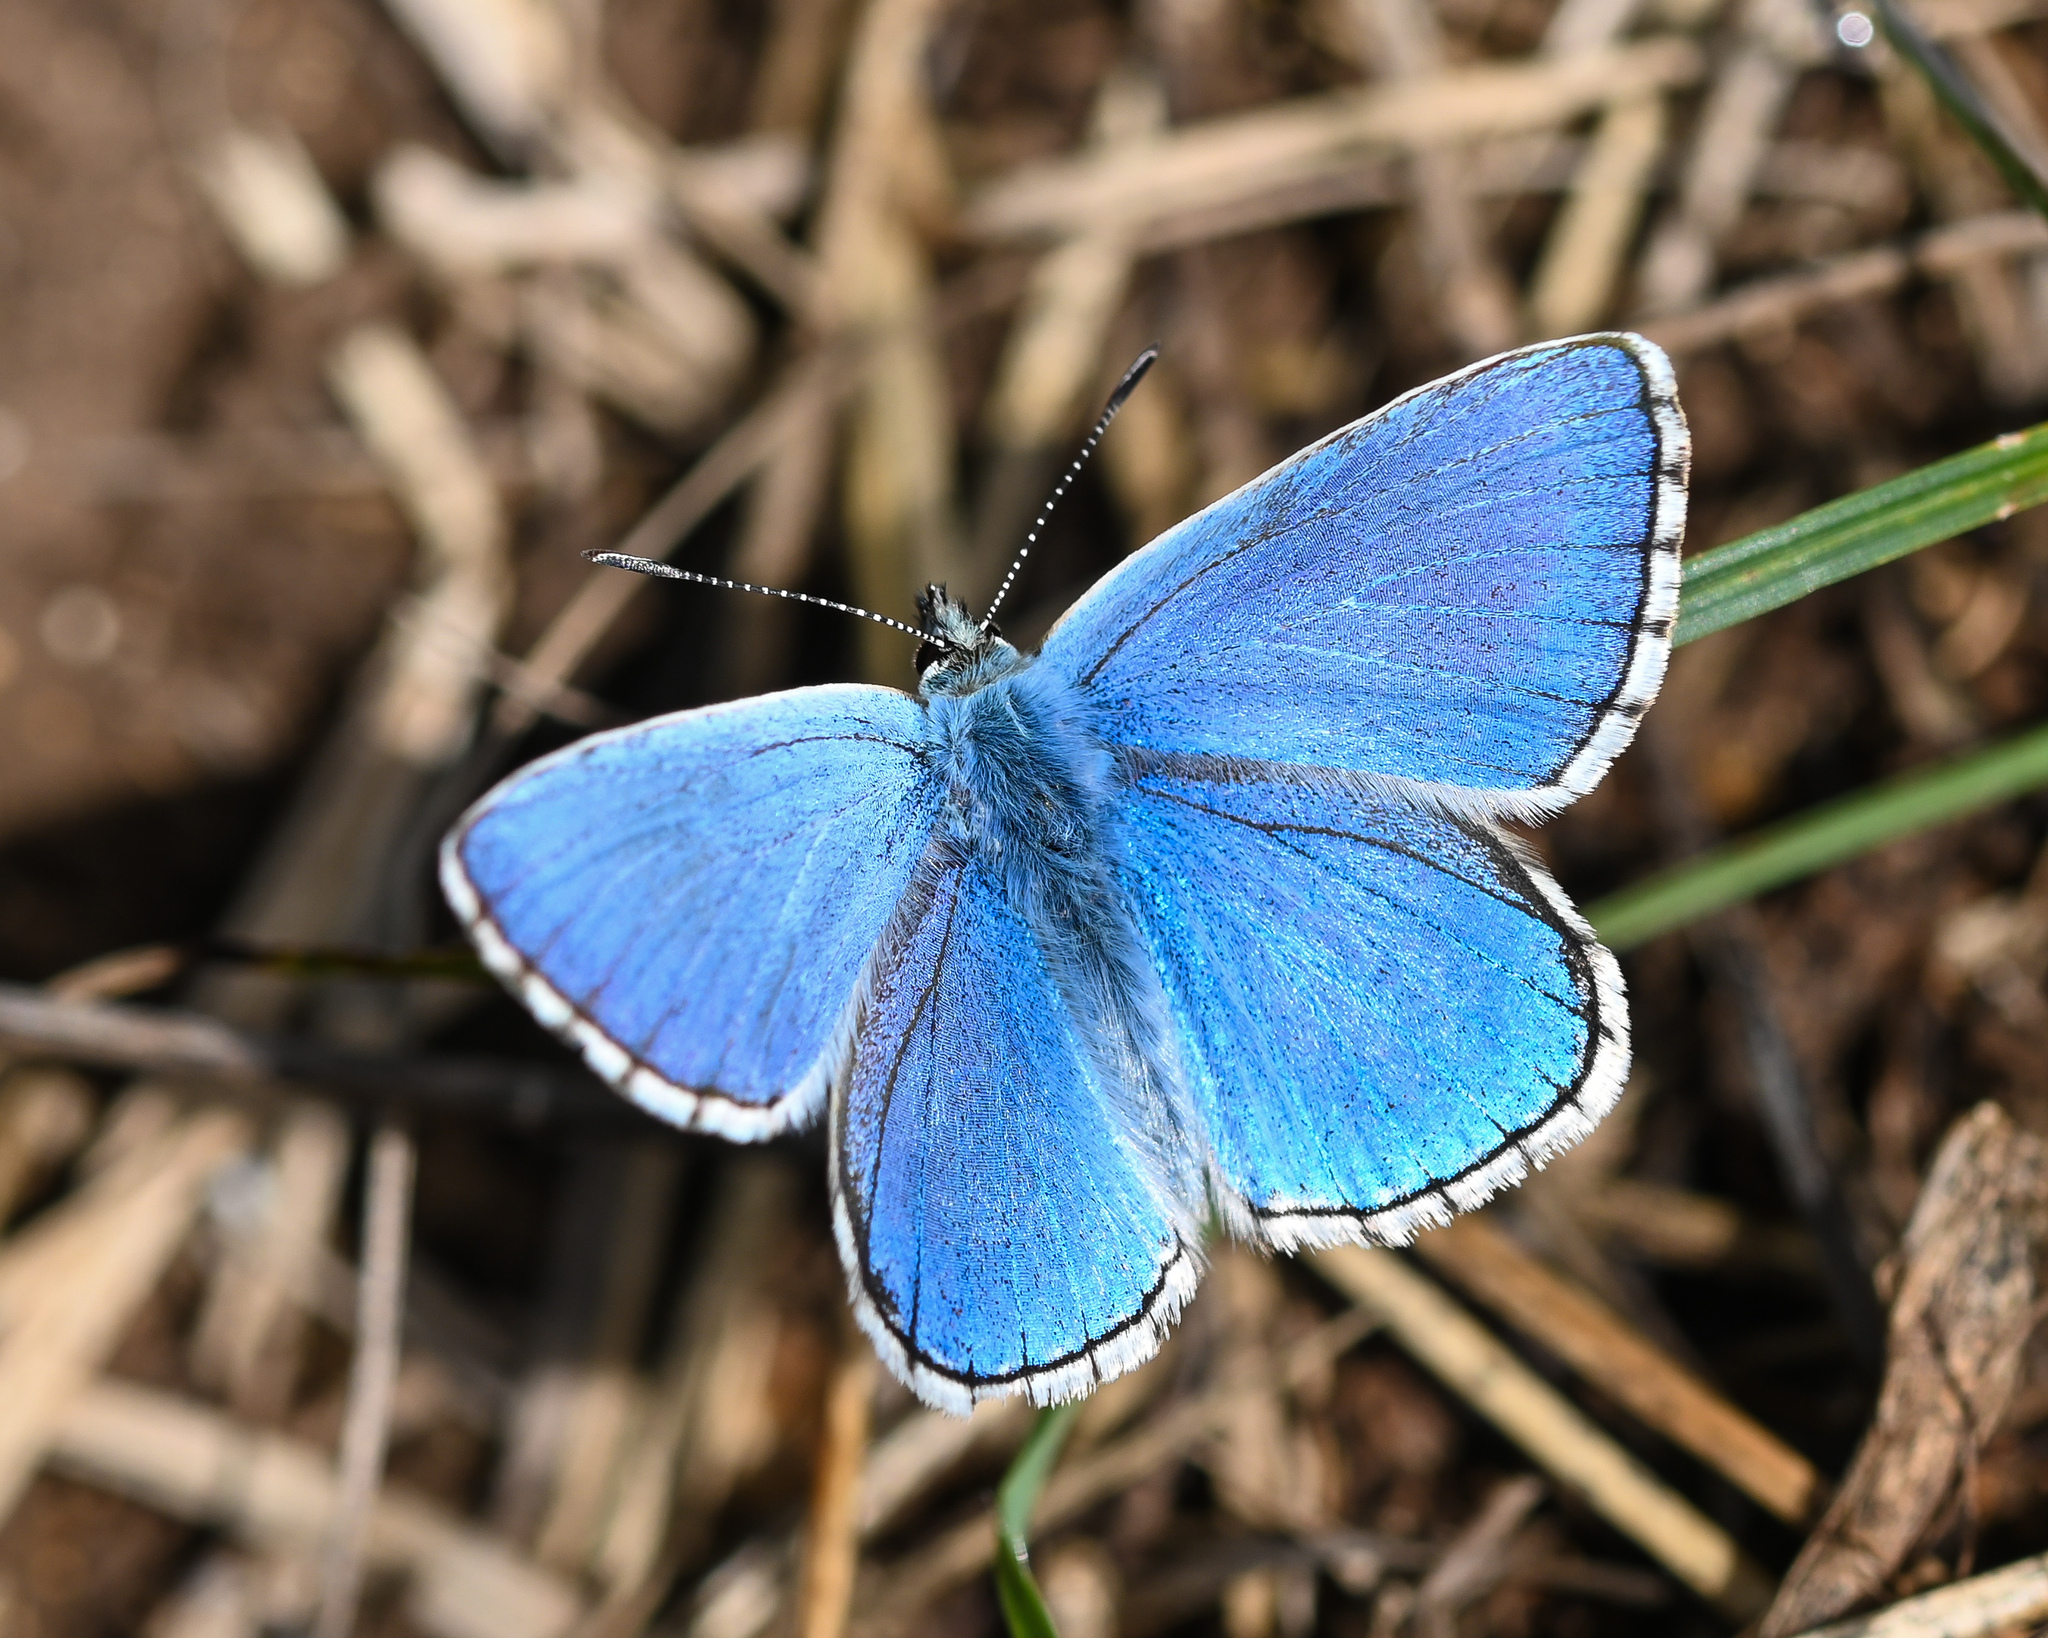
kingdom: Animalia
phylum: Arthropoda
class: Insecta
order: Lepidoptera
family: Lycaenidae
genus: Lysandra
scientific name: Lysandra bellargus
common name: Adonis blue
